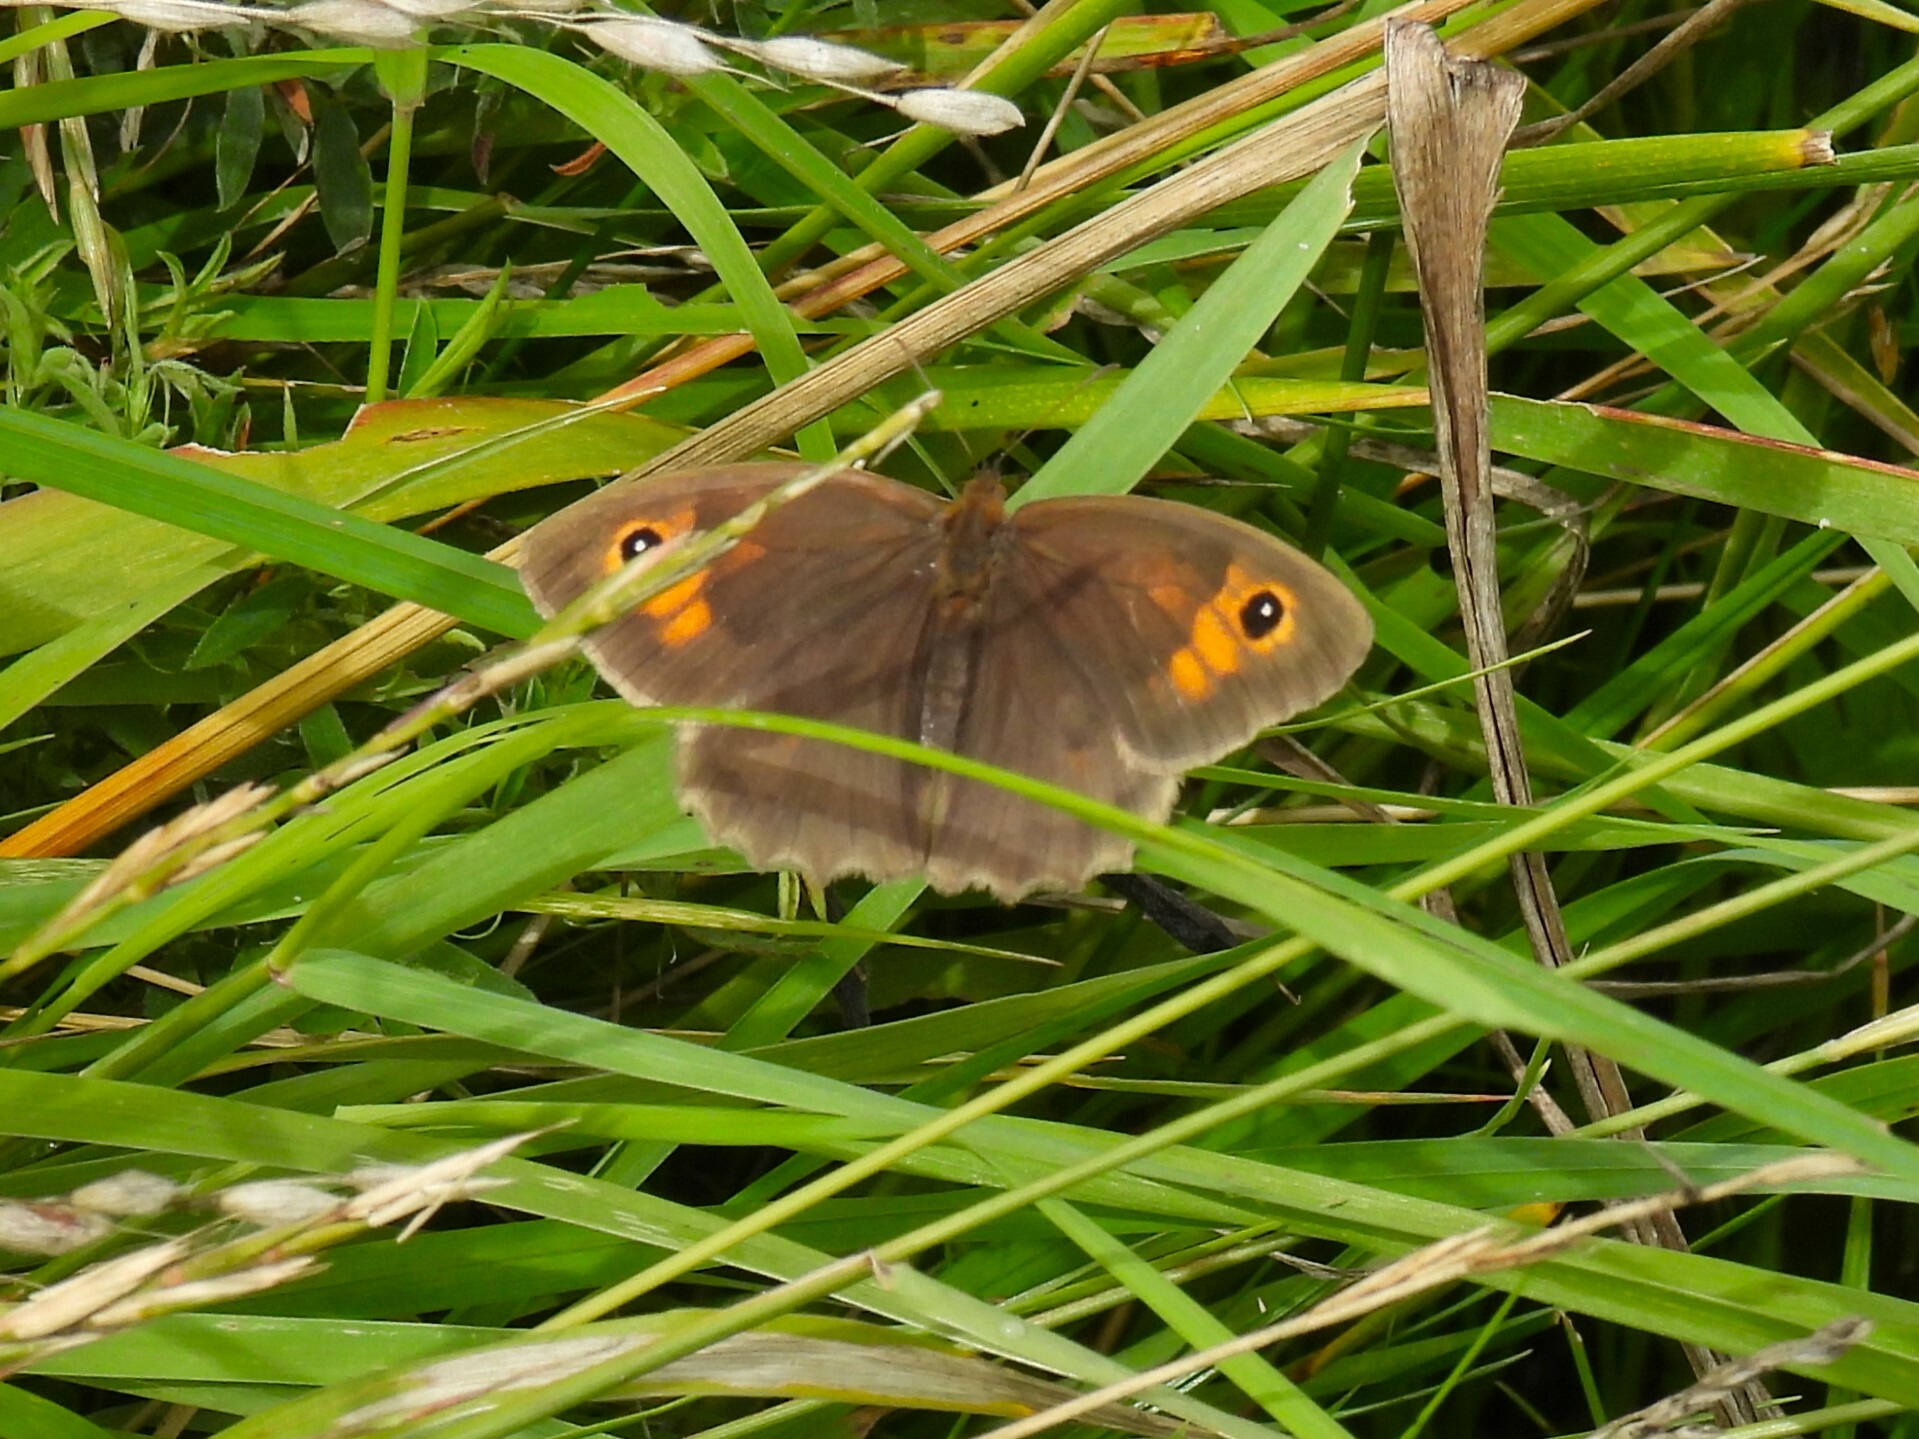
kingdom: Animalia
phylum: Arthropoda
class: Insecta
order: Lepidoptera
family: Nymphalidae
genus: Maniola
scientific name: Maniola jurtina
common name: Meadow brown
